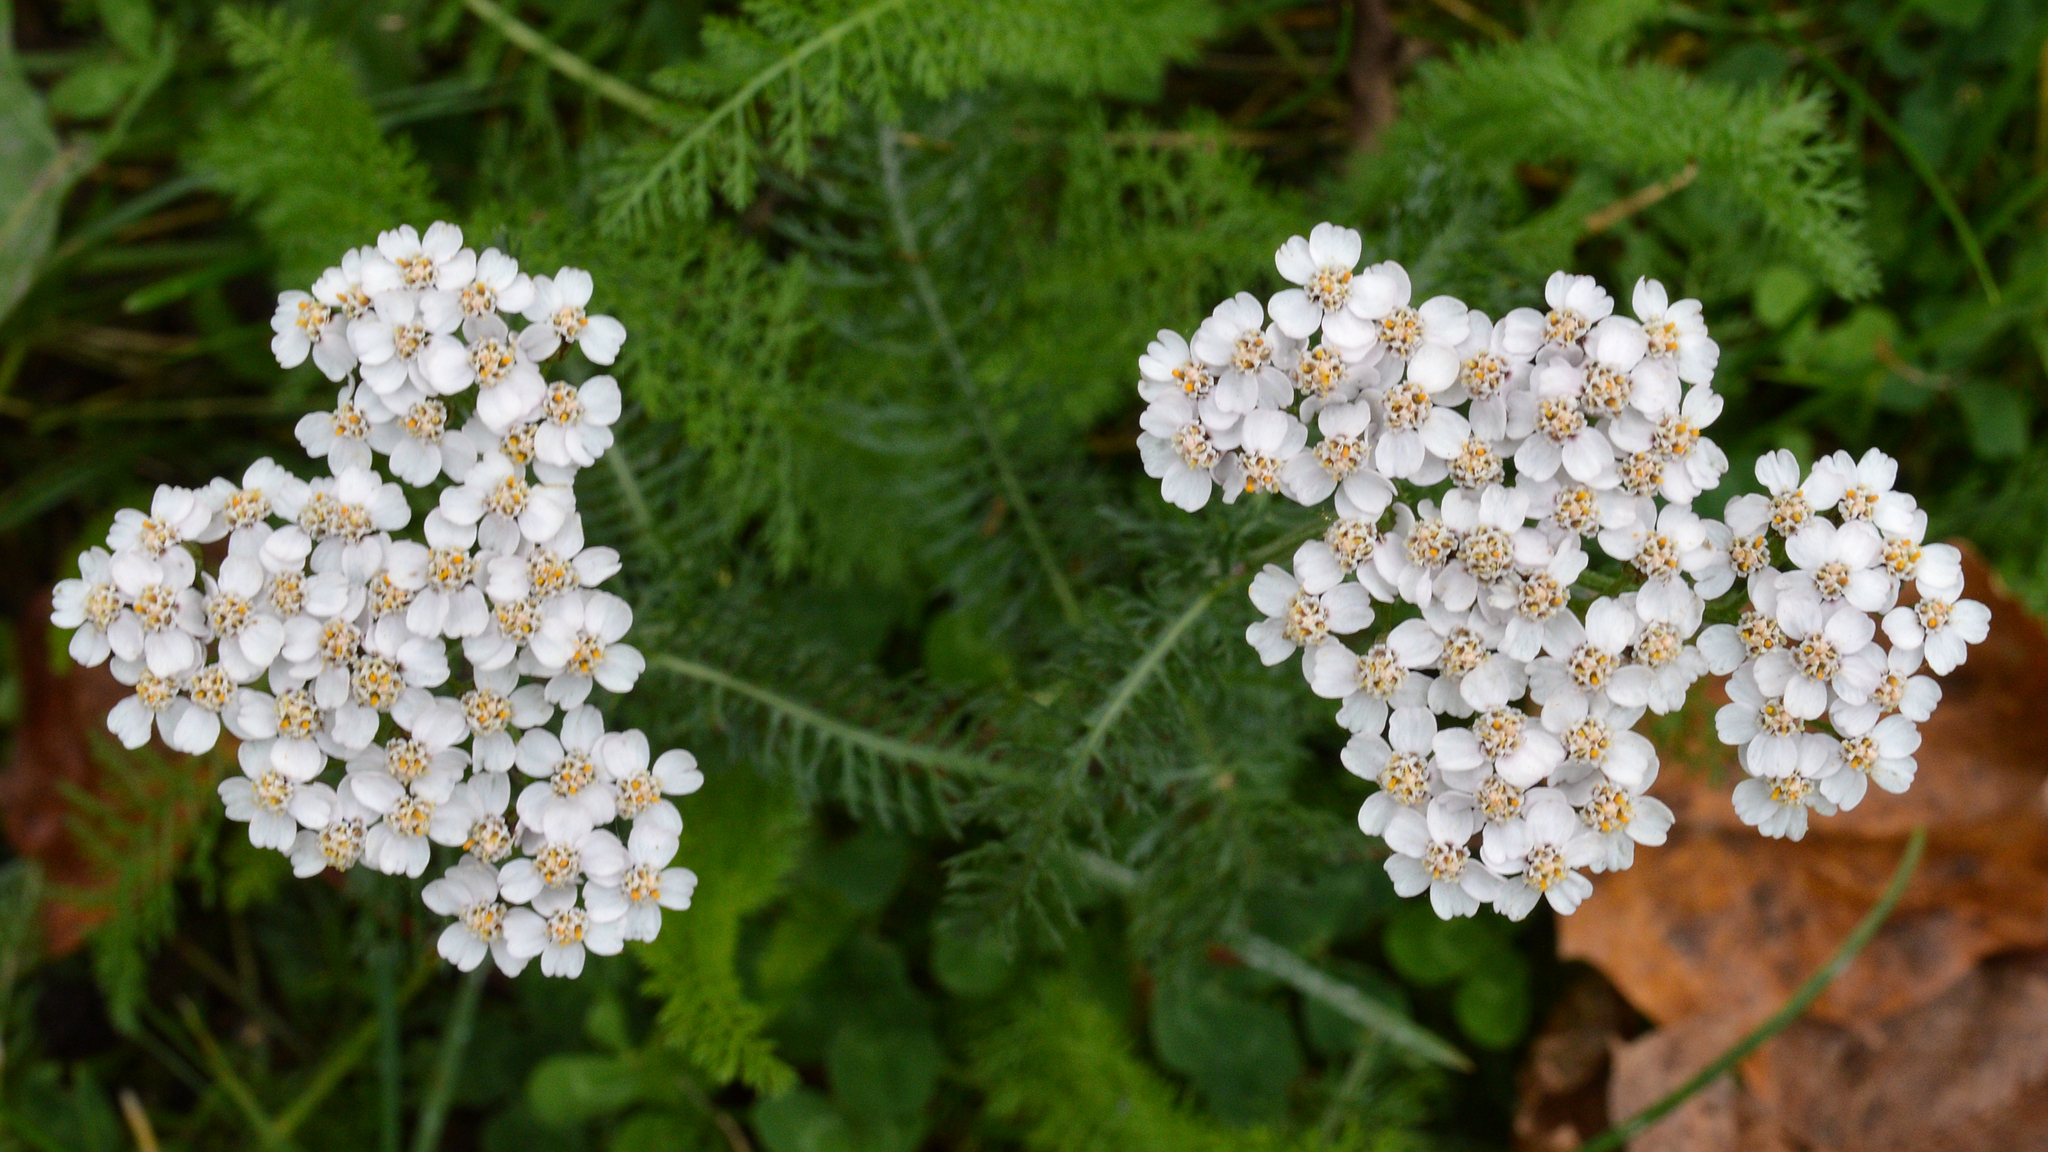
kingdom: Plantae
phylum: Tracheophyta
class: Magnoliopsida
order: Asterales
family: Asteraceae
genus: Achillea
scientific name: Achillea millefolium
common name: Yarrow
